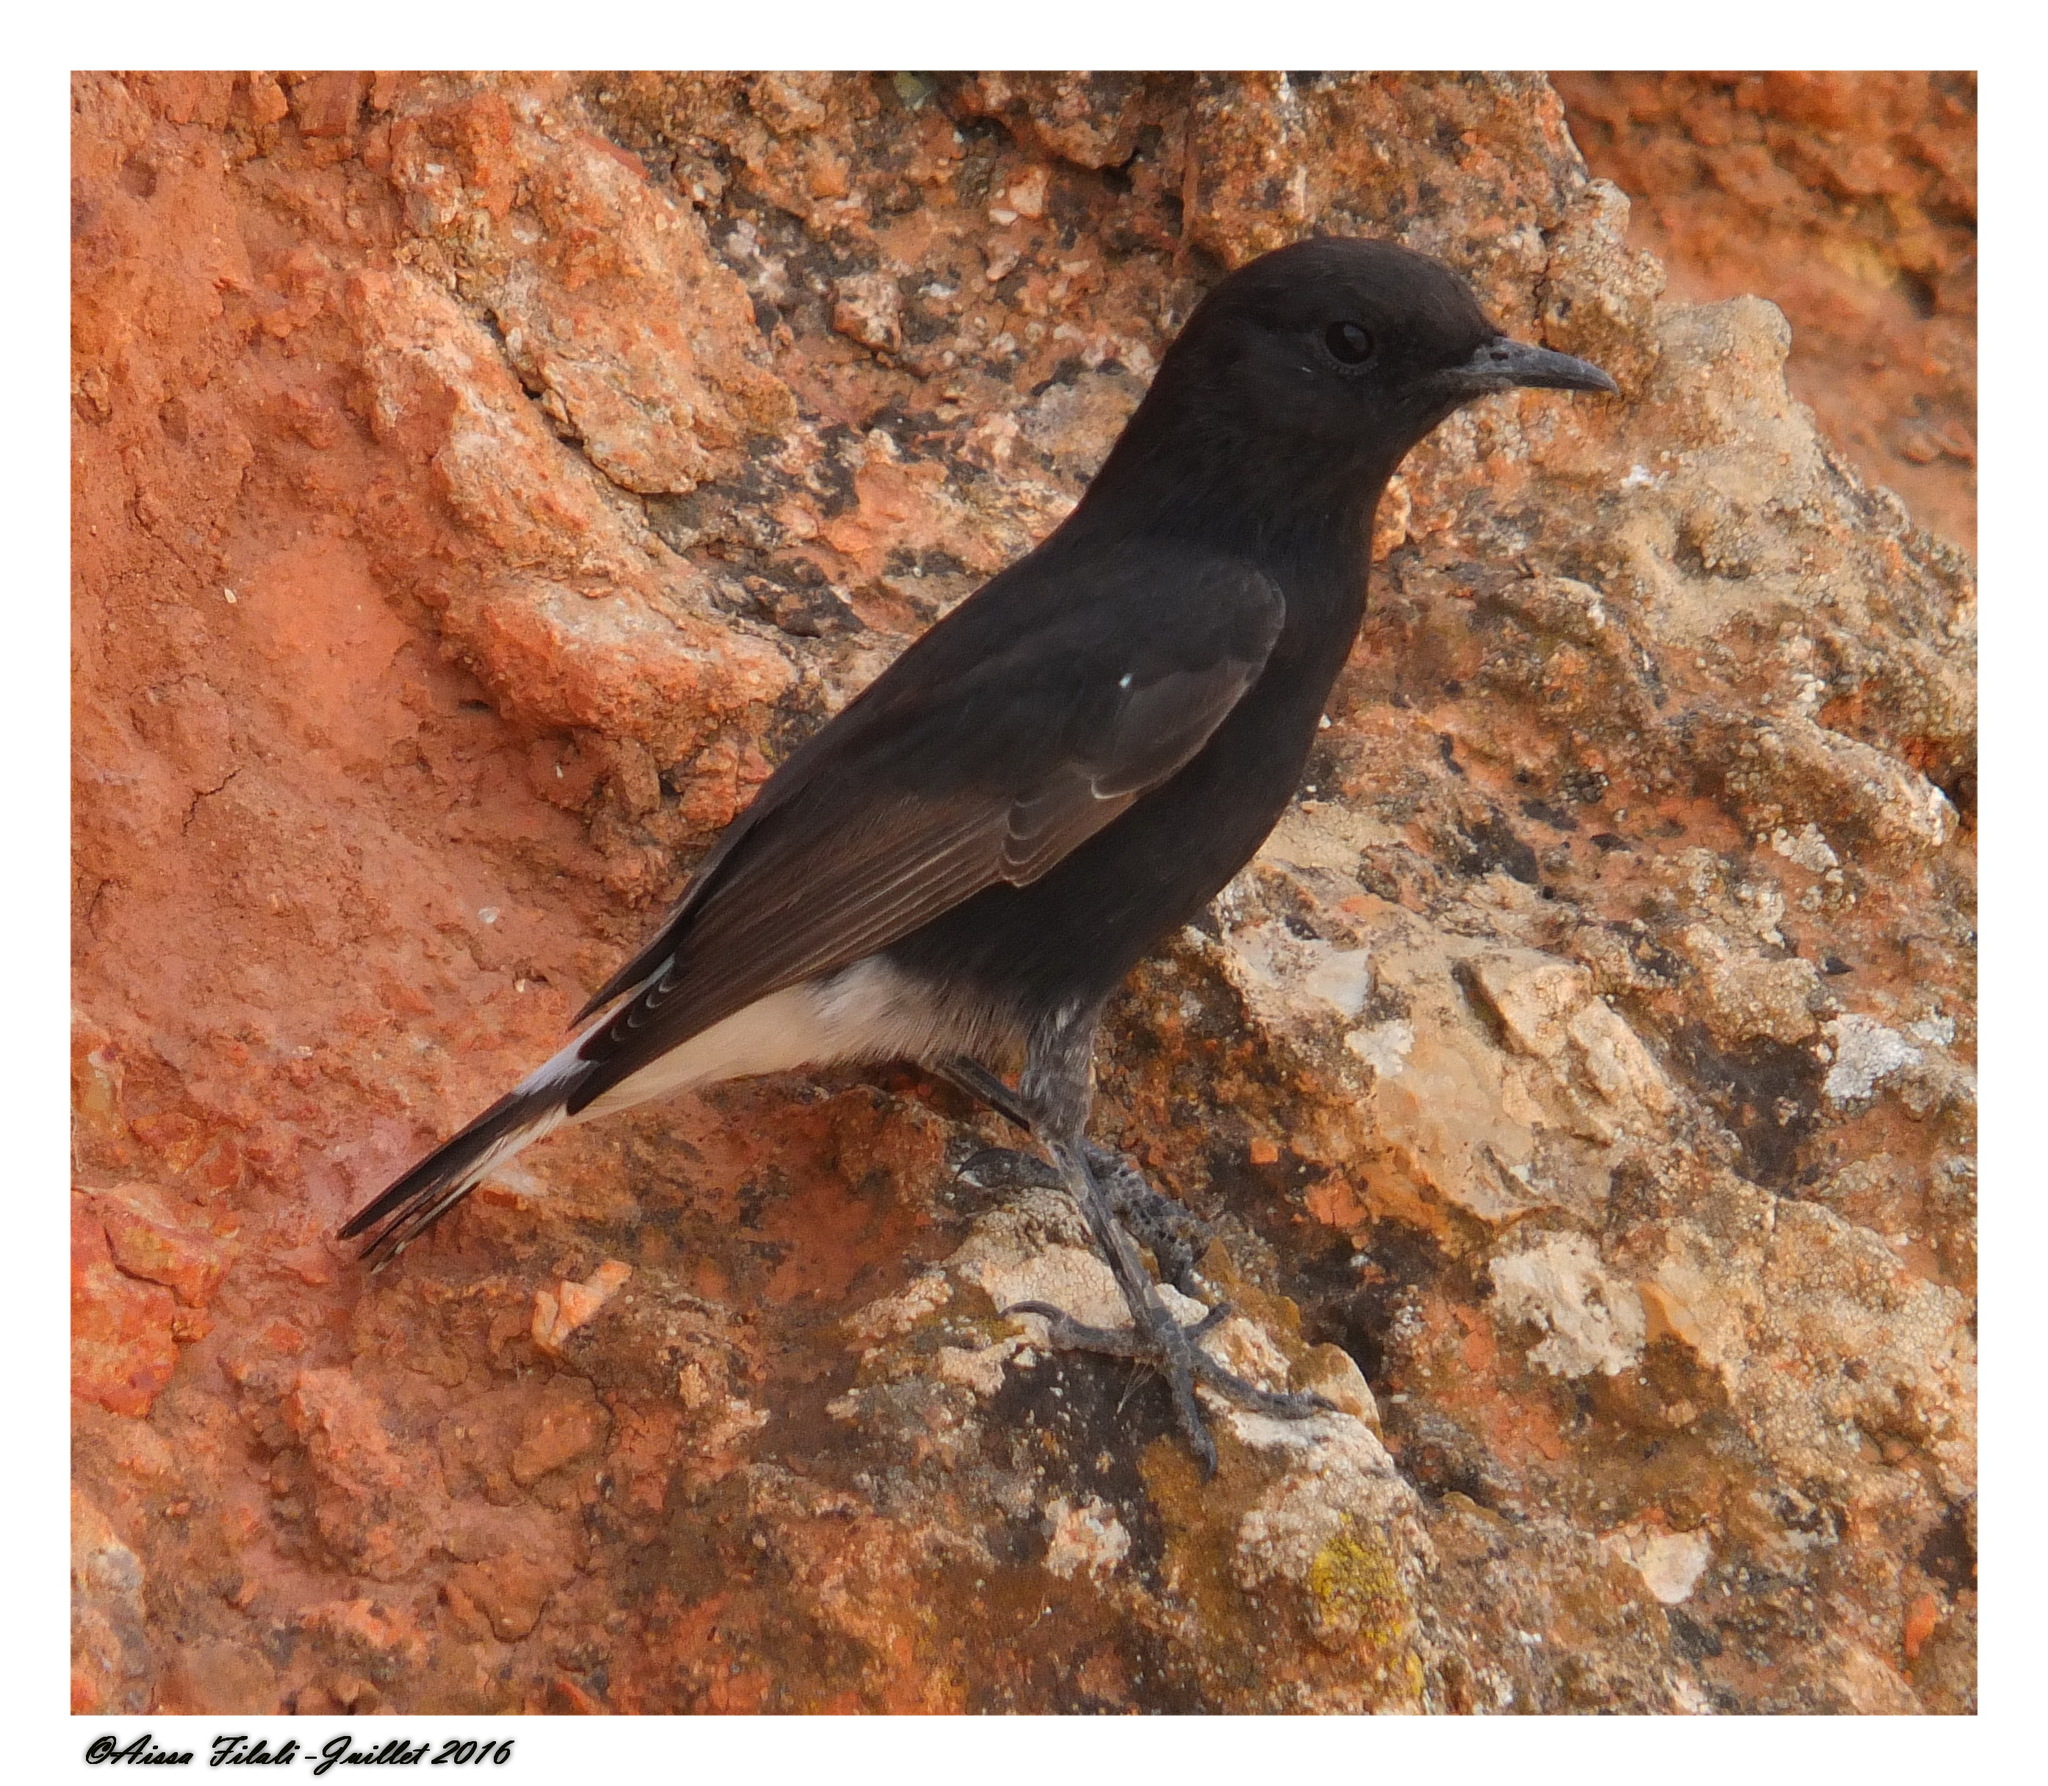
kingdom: Animalia
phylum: Chordata
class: Aves
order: Passeriformes
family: Muscicapidae
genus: Oenanthe
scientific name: Oenanthe leucura
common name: Black wheatear
